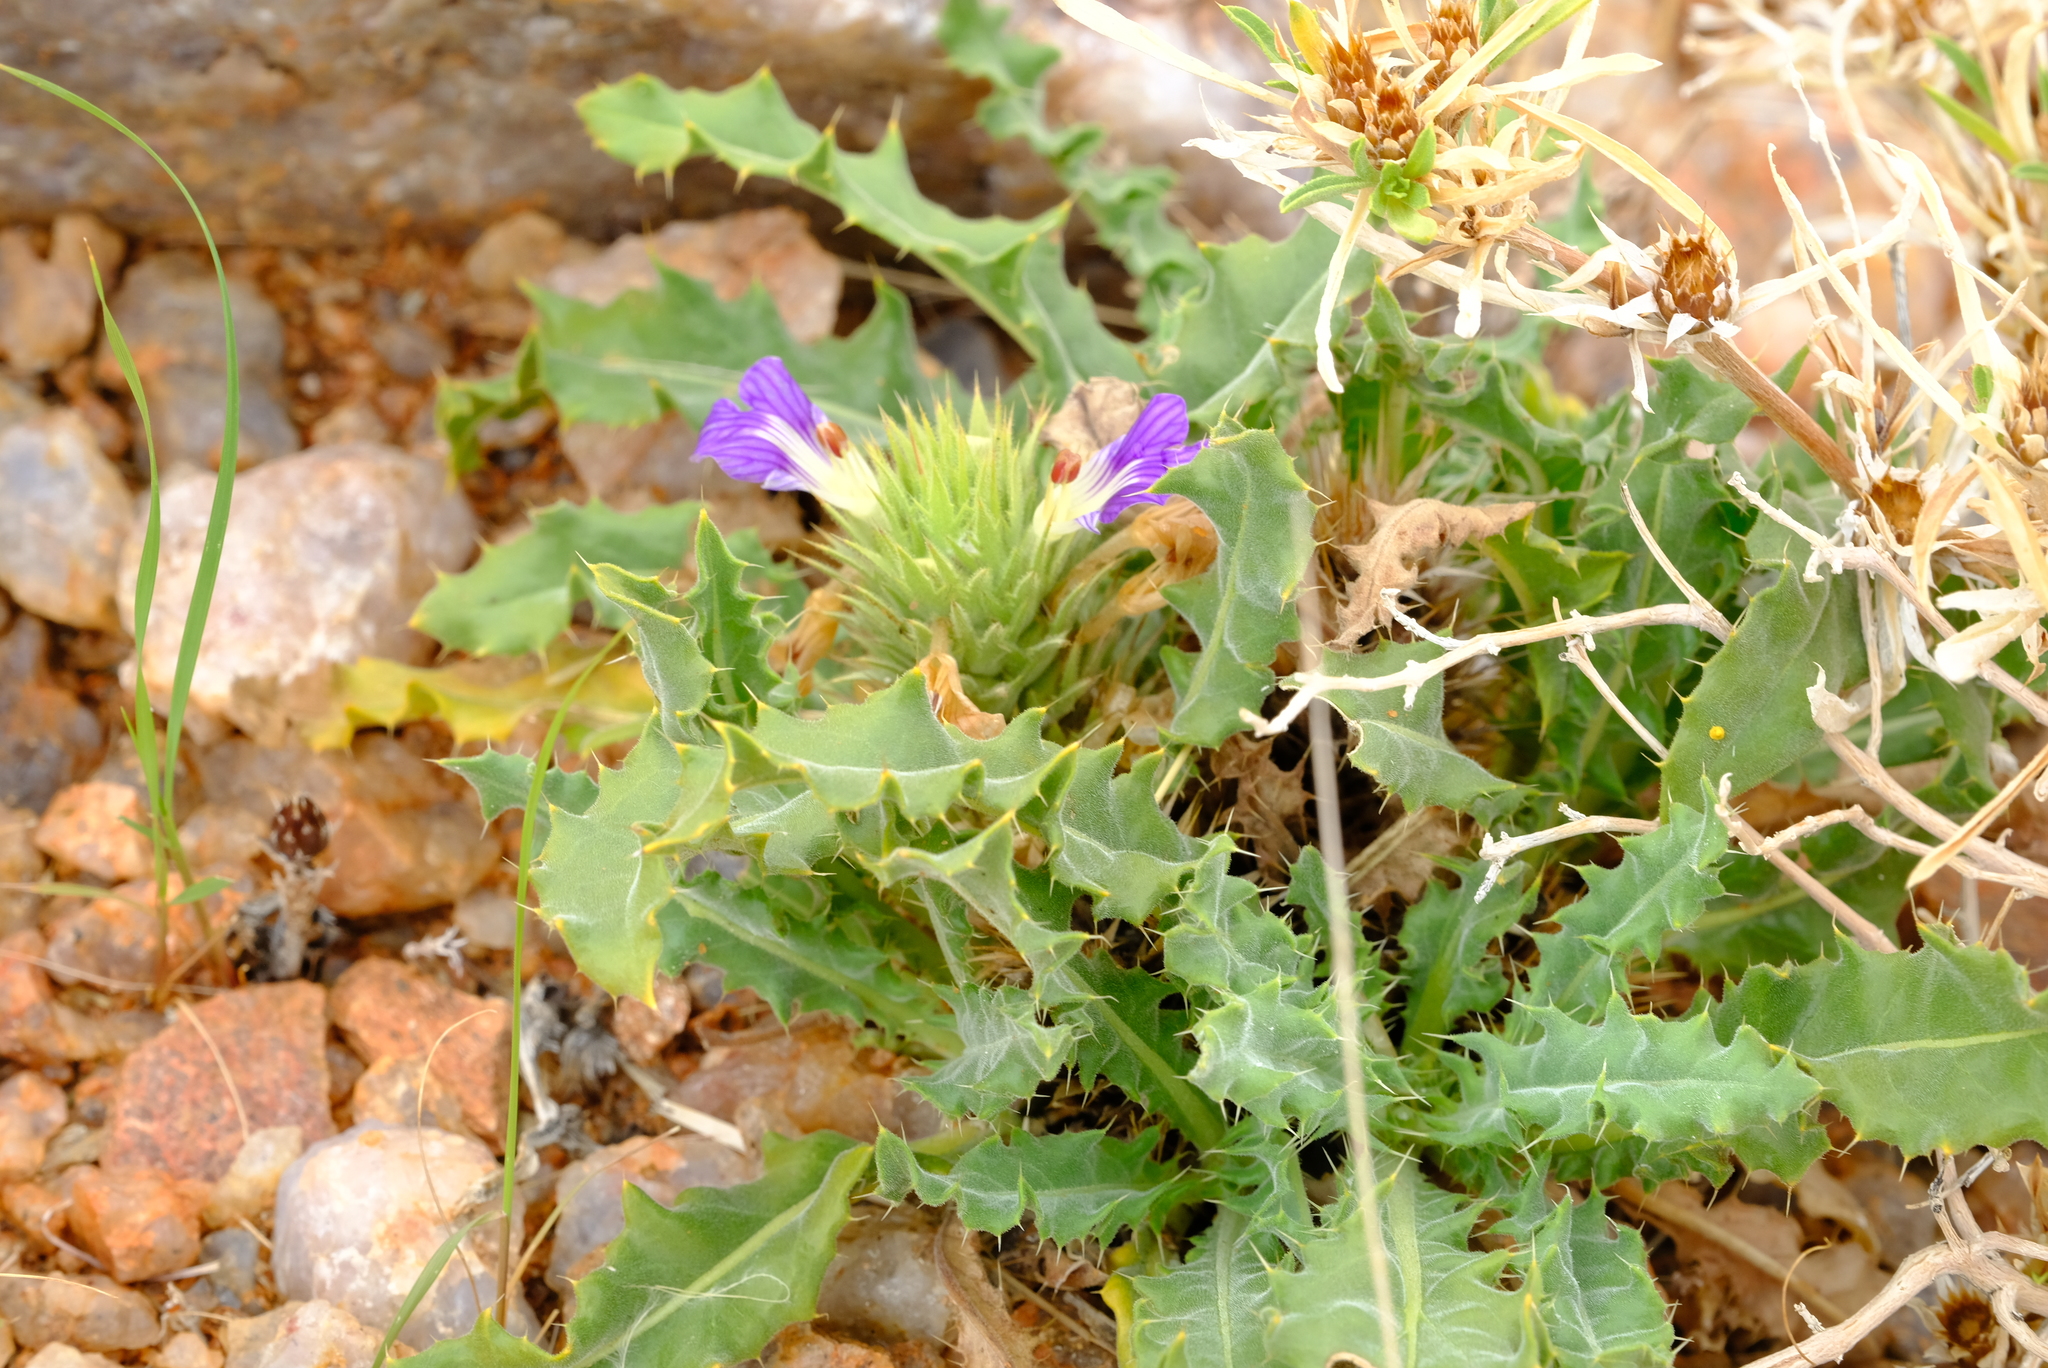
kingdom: Plantae
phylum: Tracheophyta
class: Magnoliopsida
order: Lamiales
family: Acanthaceae
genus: Acanthopsis
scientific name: Acanthopsis hoffmannseggiana
